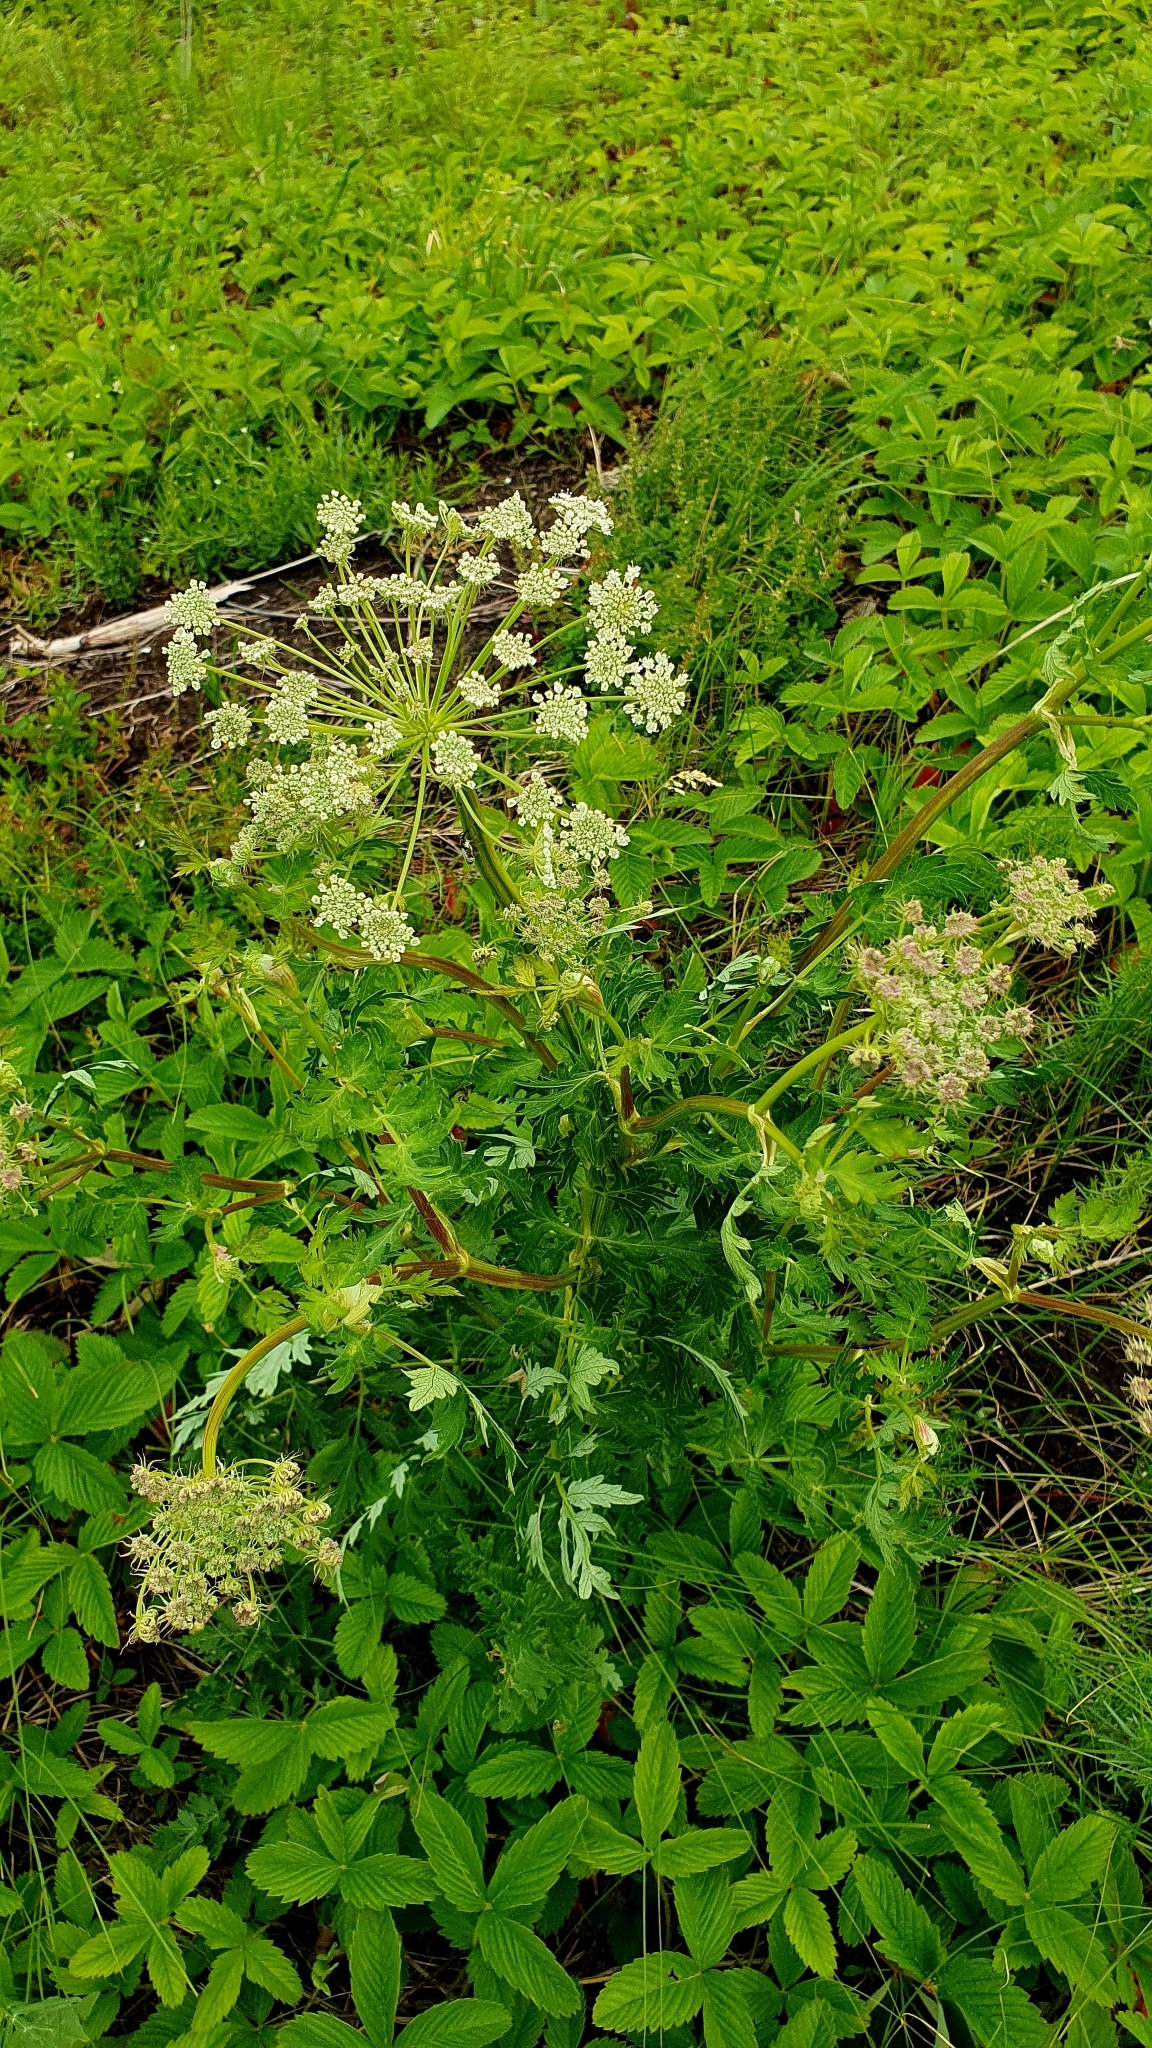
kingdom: Plantae
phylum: Tracheophyta
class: Magnoliopsida
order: Apiales
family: Apiaceae
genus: Seseli
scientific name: Seseli libanotis
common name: Mooncarrot
